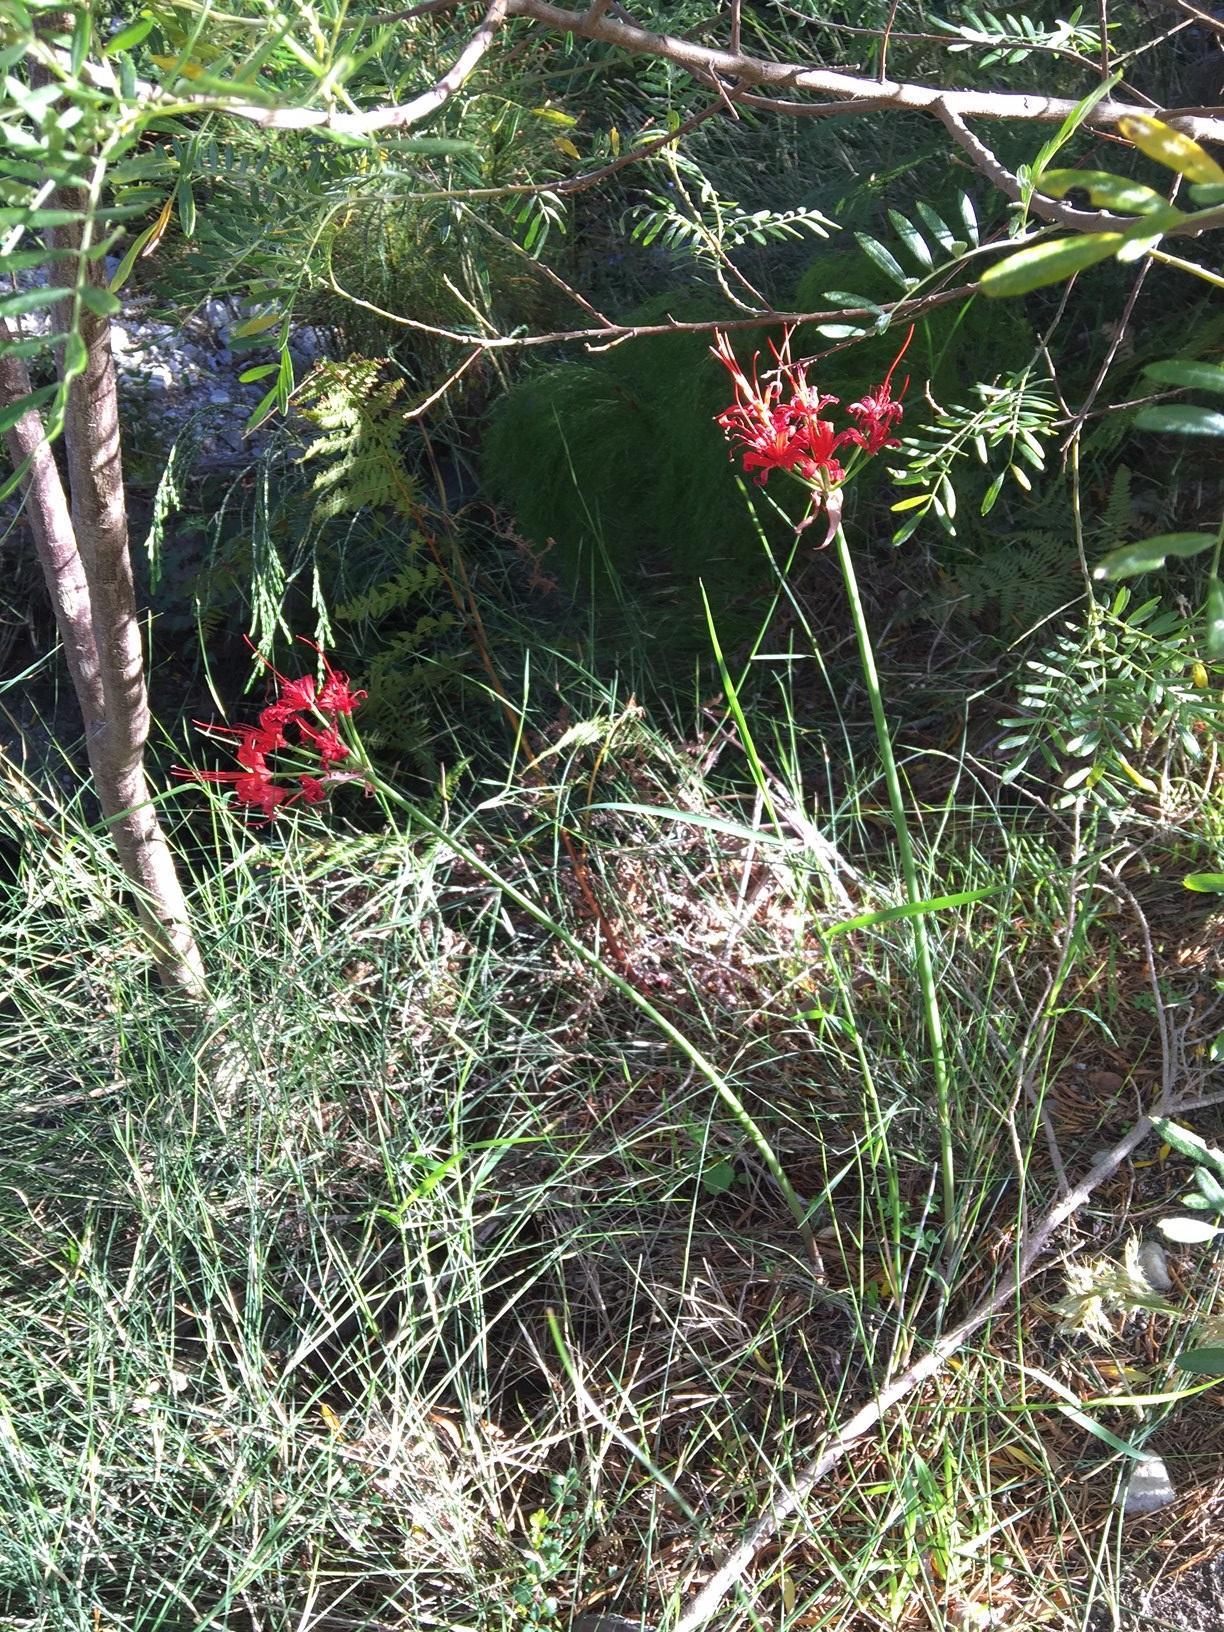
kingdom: Plantae
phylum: Tracheophyta
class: Liliopsida
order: Asparagales
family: Amaryllidaceae
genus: Nerine
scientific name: Nerine sarniensis
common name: Guernsey-lily
